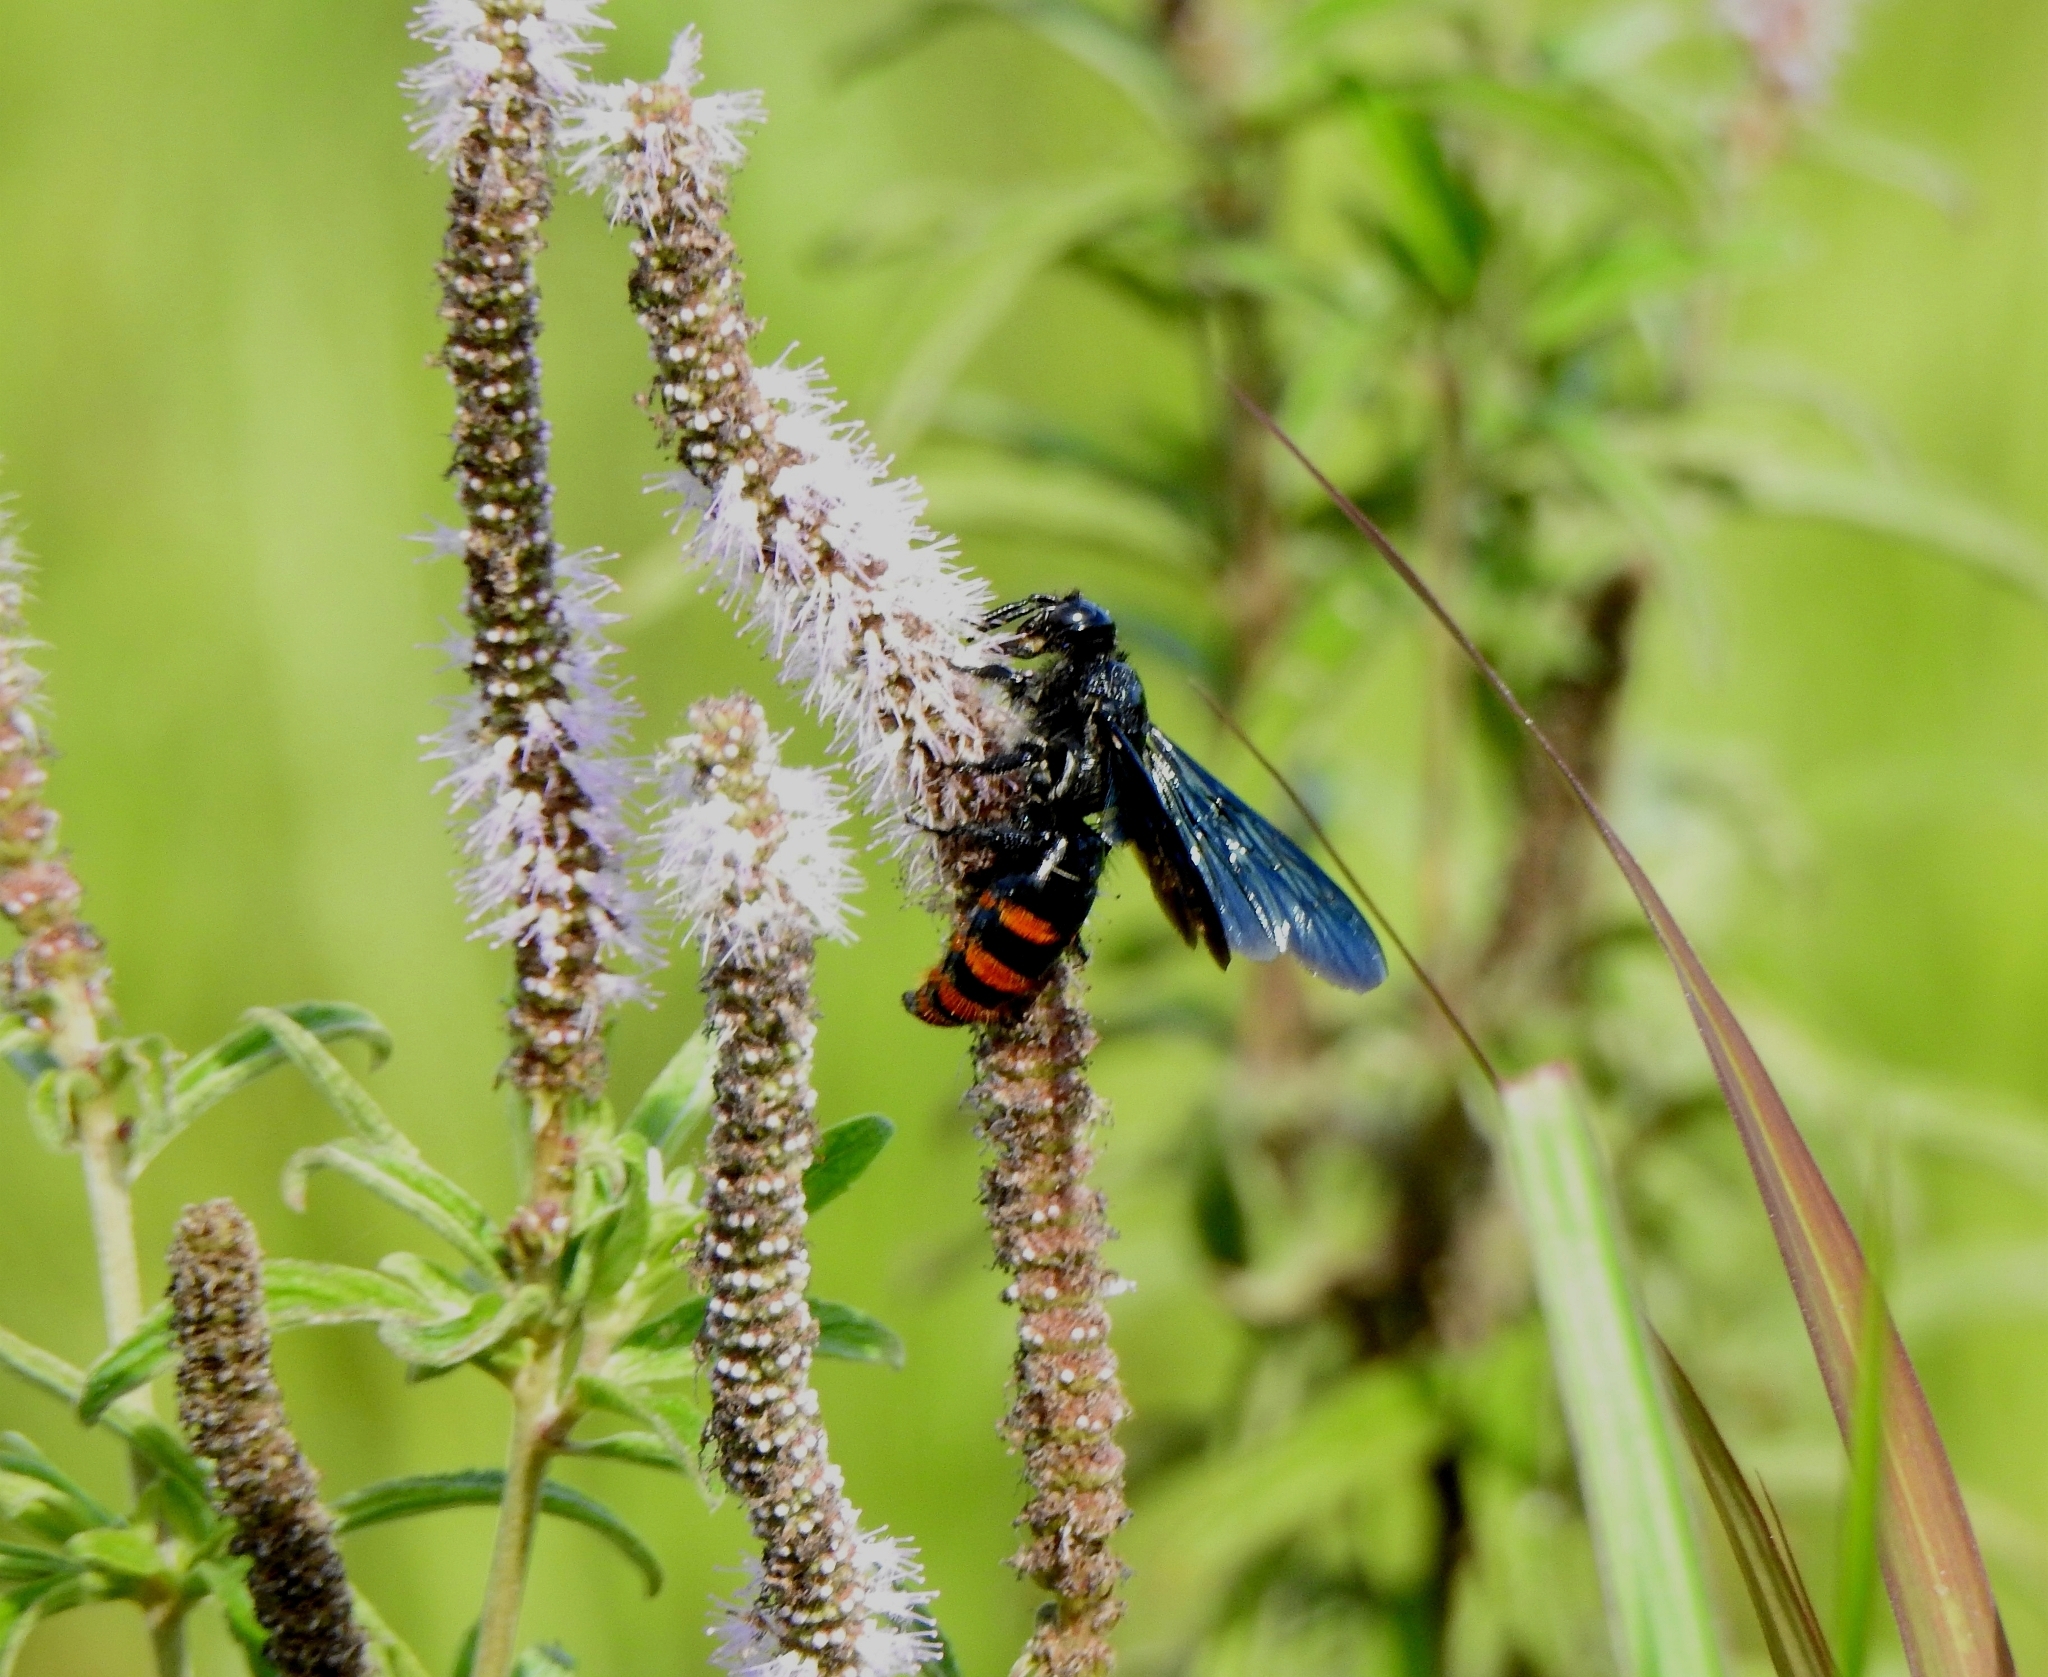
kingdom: Animalia
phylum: Arthropoda
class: Insecta
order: Hymenoptera
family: Scoliidae
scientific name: Scoliidae
